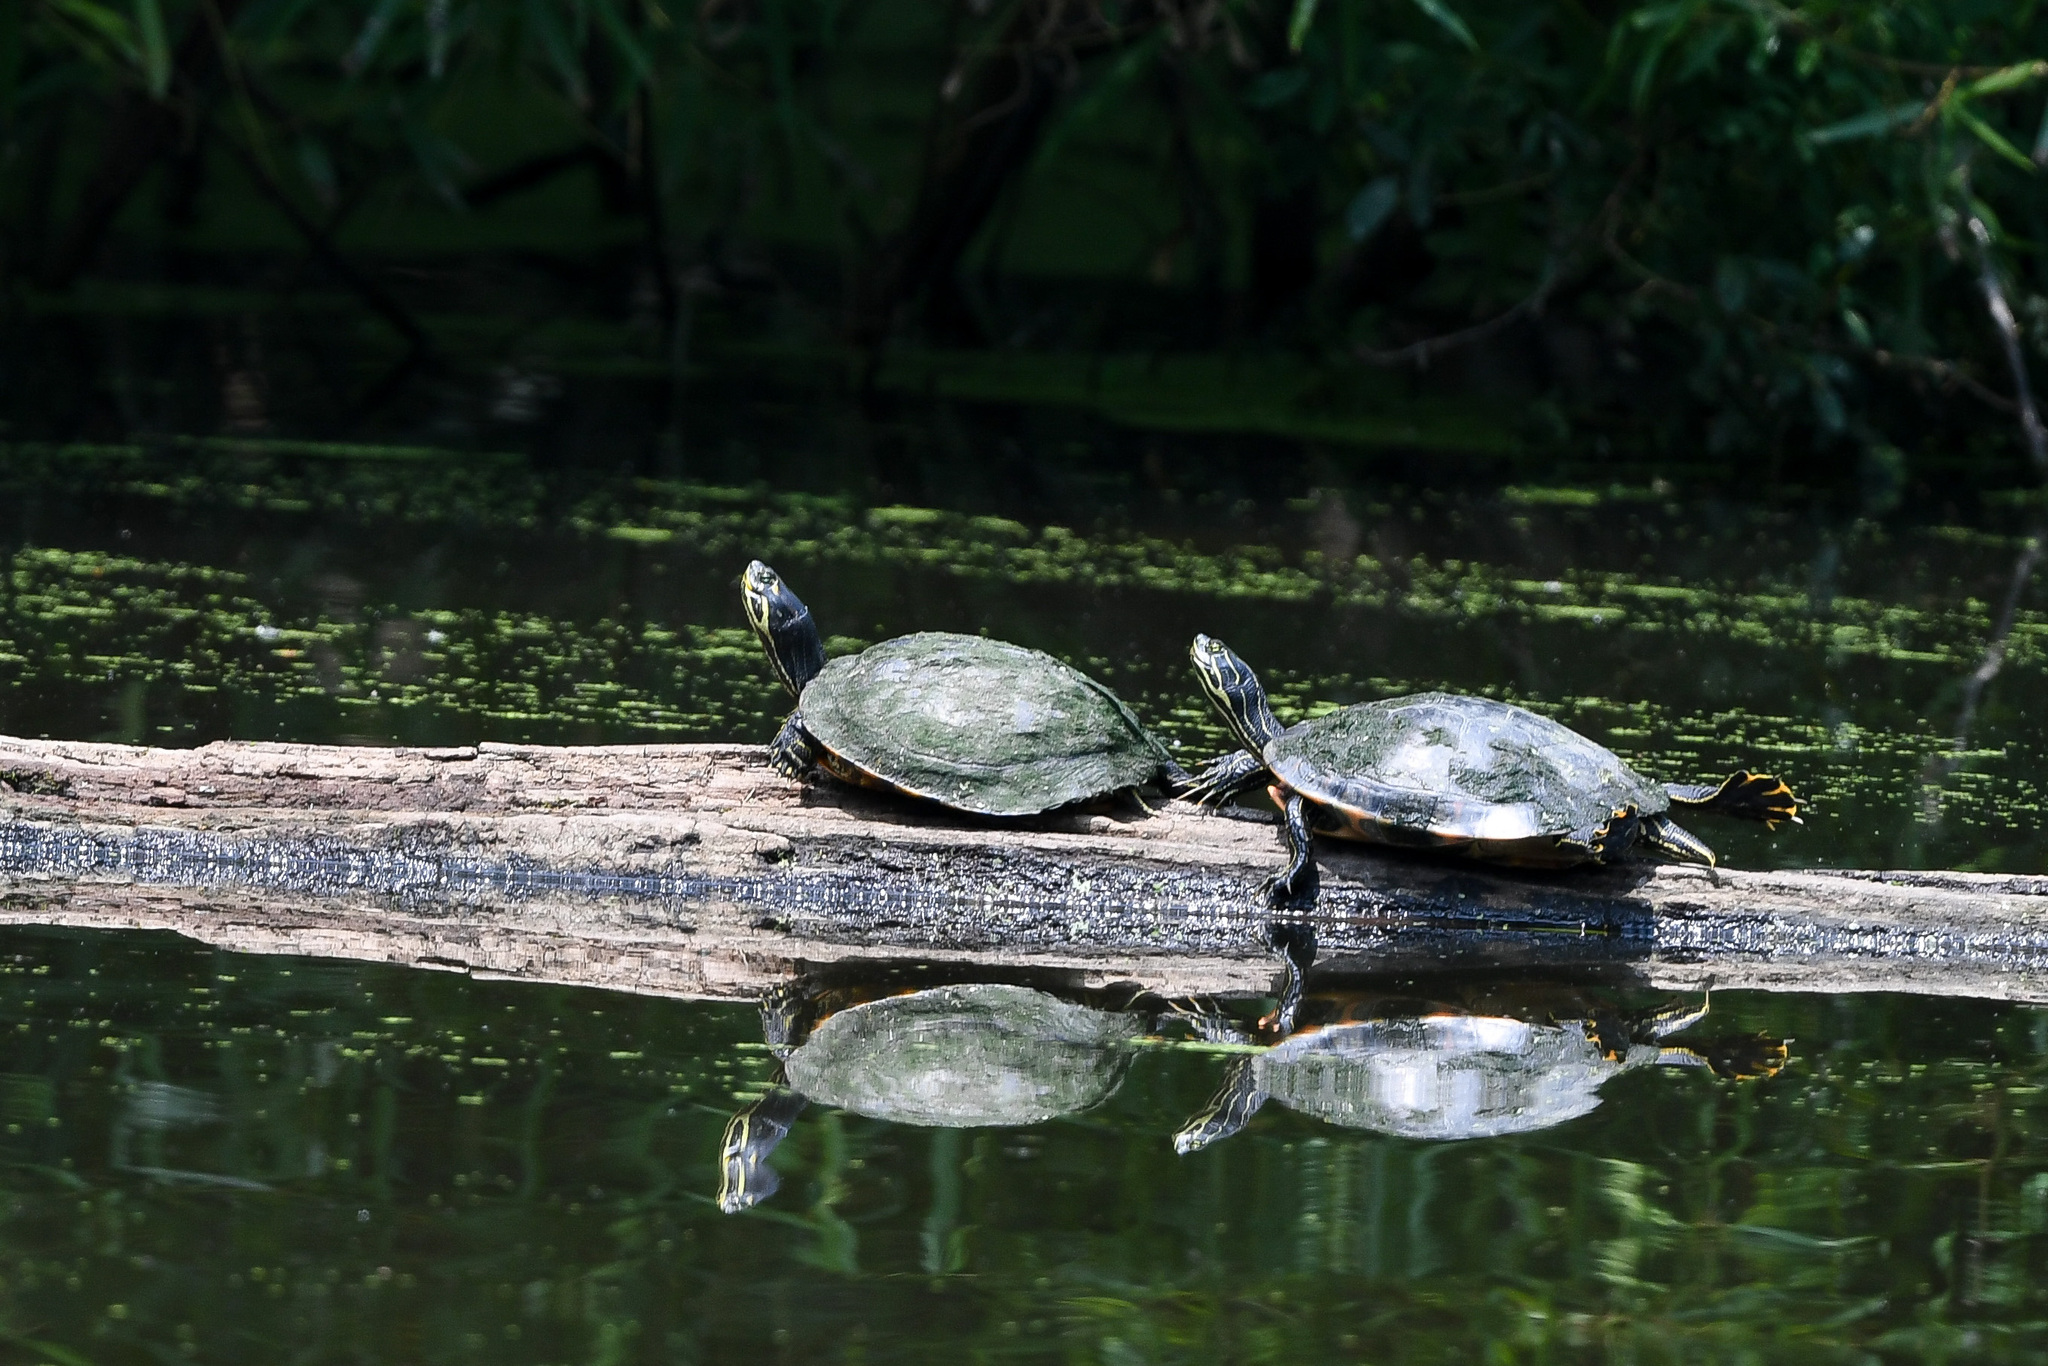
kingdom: Animalia
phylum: Chordata
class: Testudines
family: Emydidae
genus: Trachemys
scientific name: Trachemys scripta
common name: Slider
